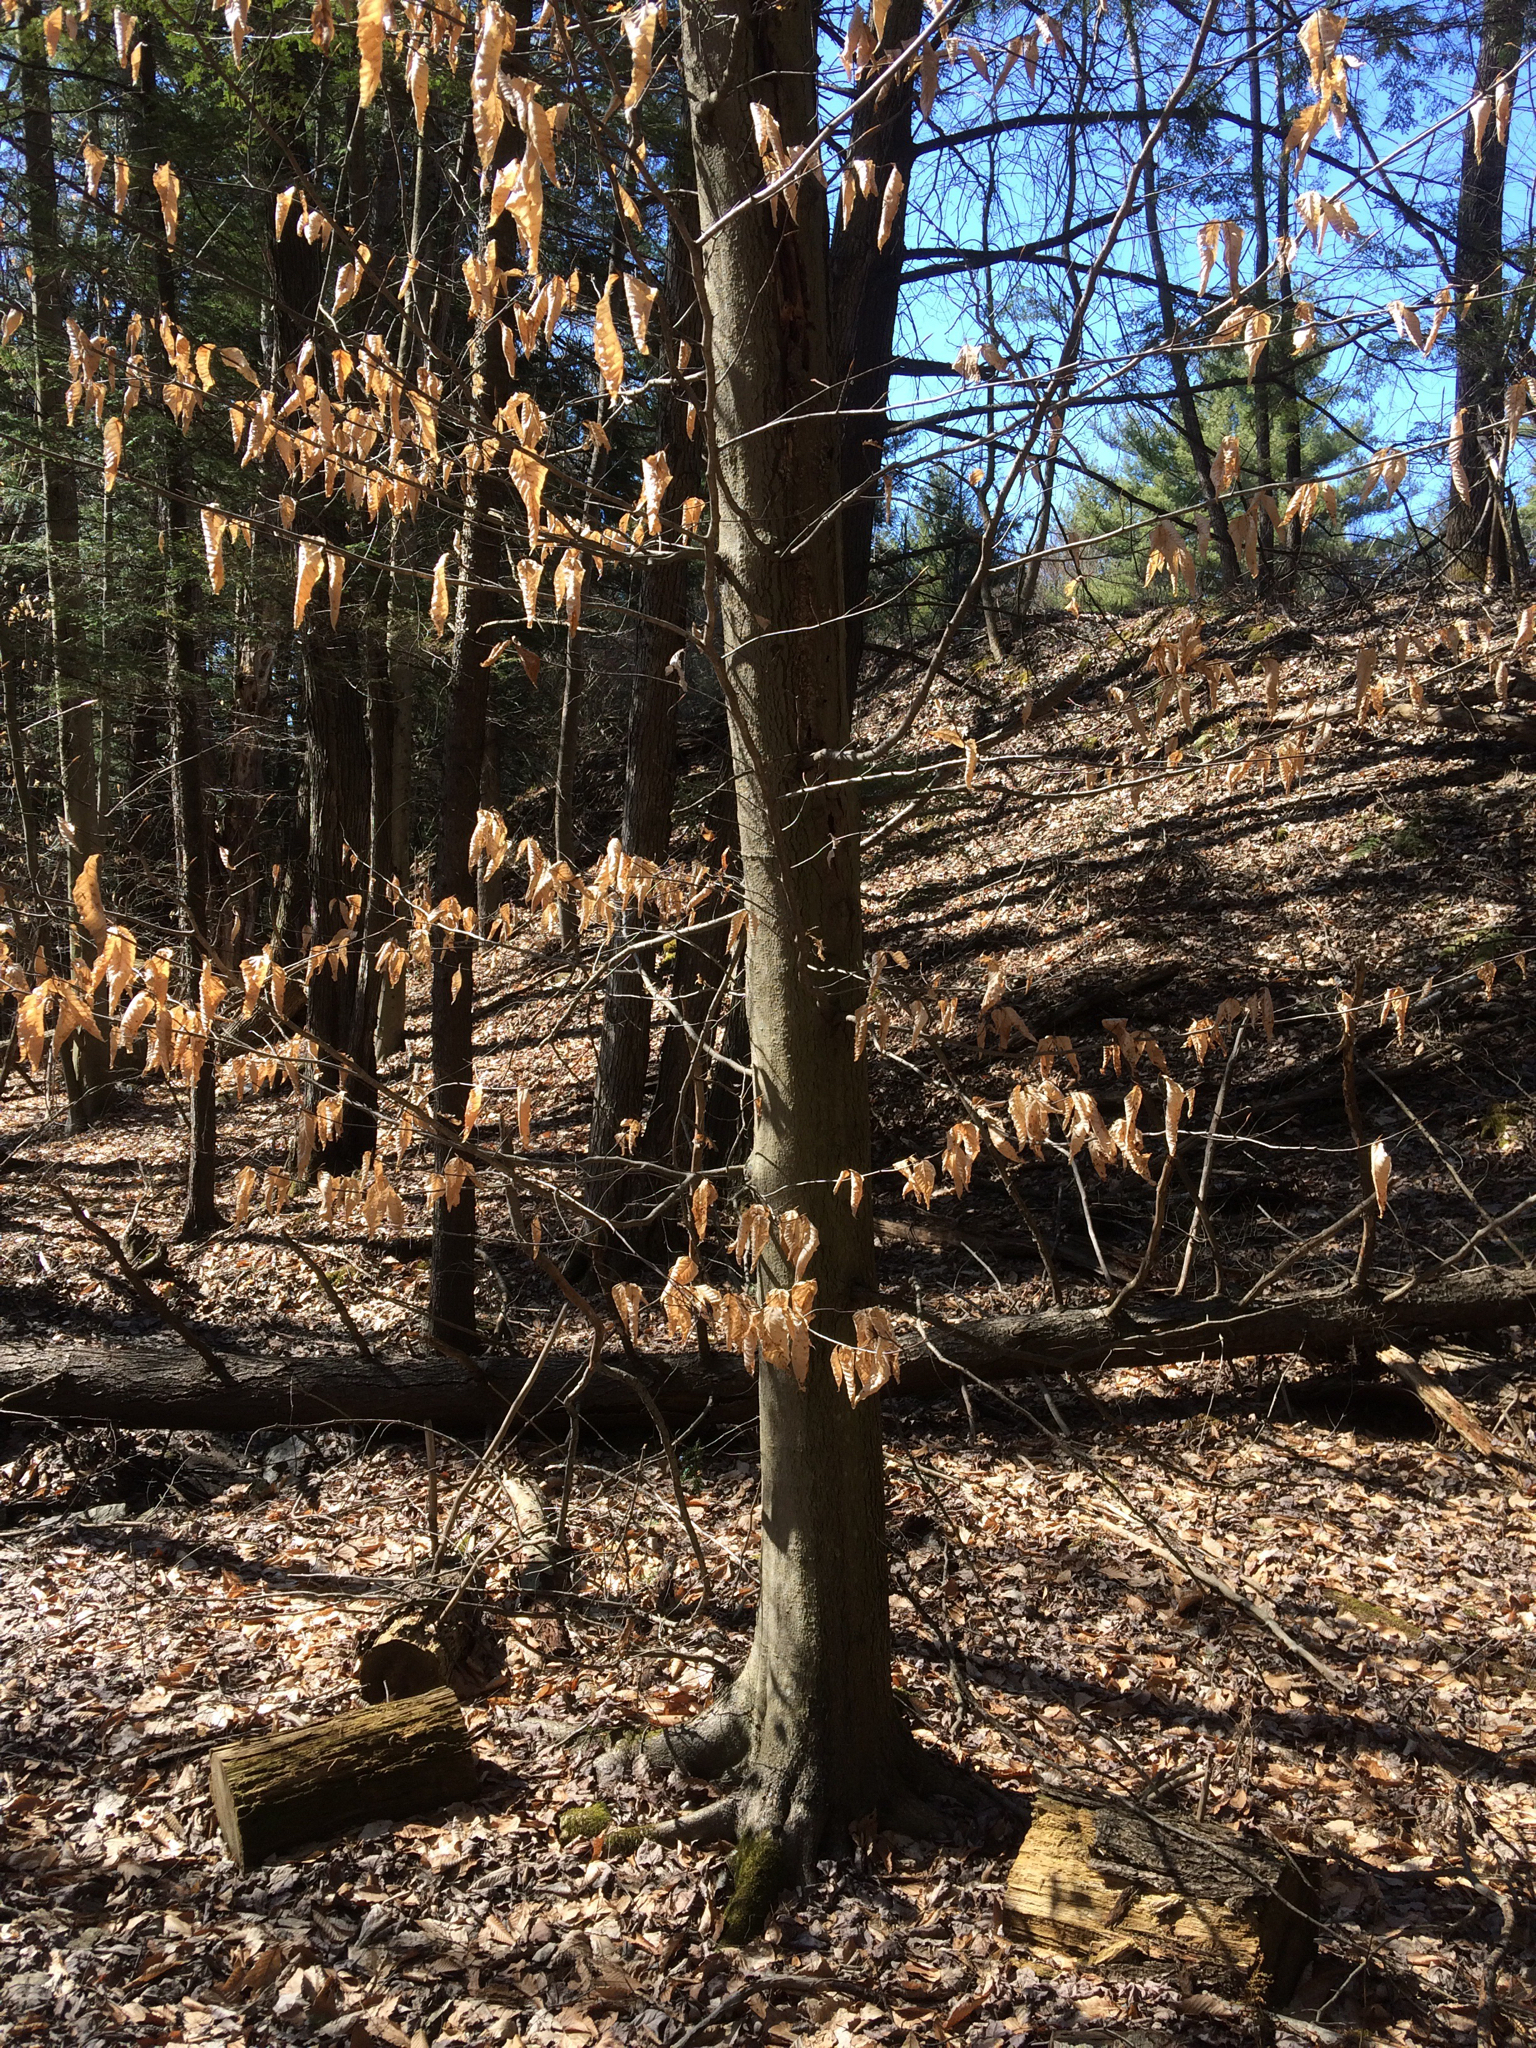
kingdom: Plantae
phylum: Tracheophyta
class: Magnoliopsida
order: Fagales
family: Fagaceae
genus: Fagus
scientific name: Fagus grandifolia
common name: American beech
